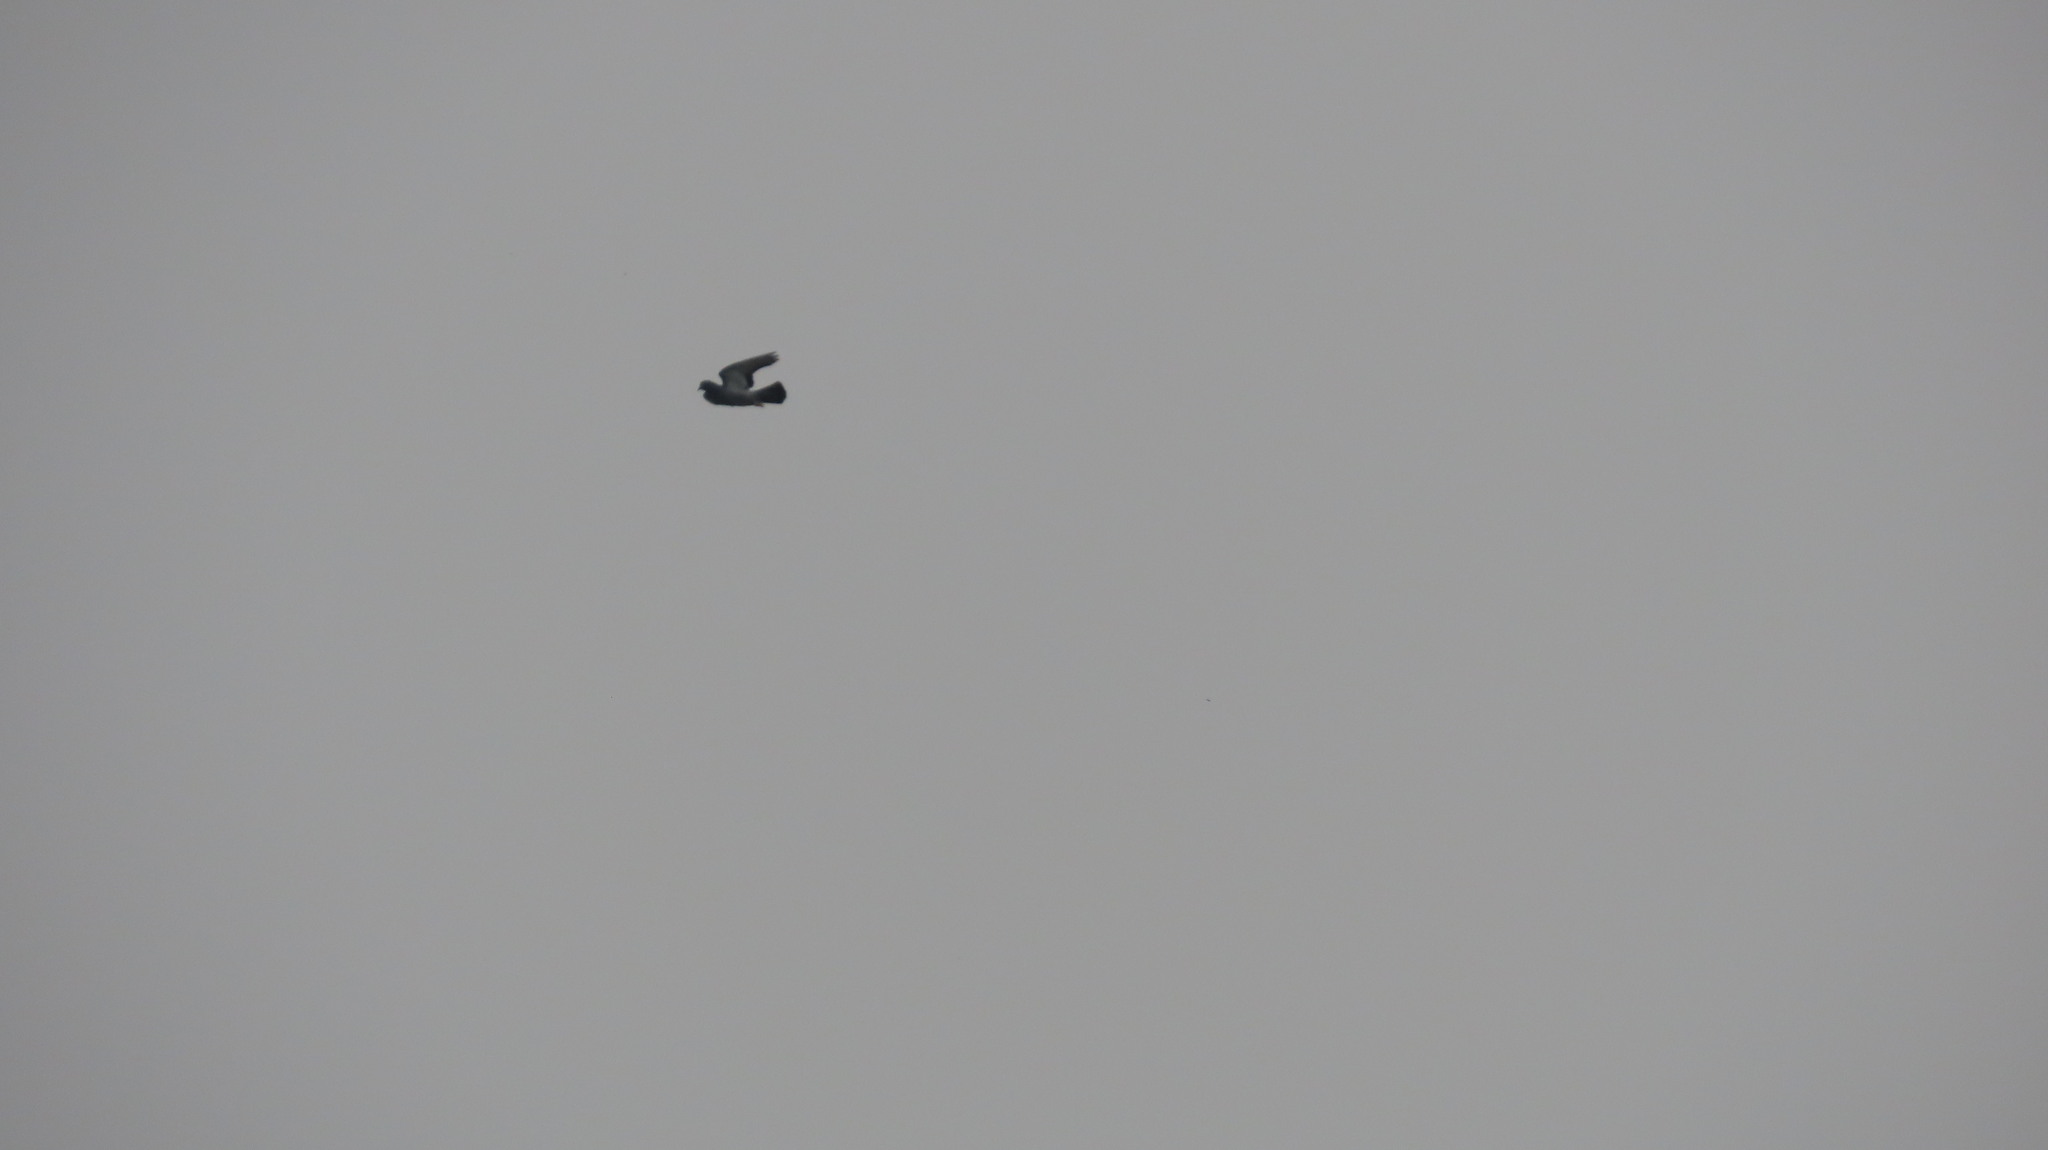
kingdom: Animalia
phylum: Chordata
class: Aves
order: Columbiformes
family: Columbidae
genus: Columba
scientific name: Columba livia
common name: Rock pigeon
